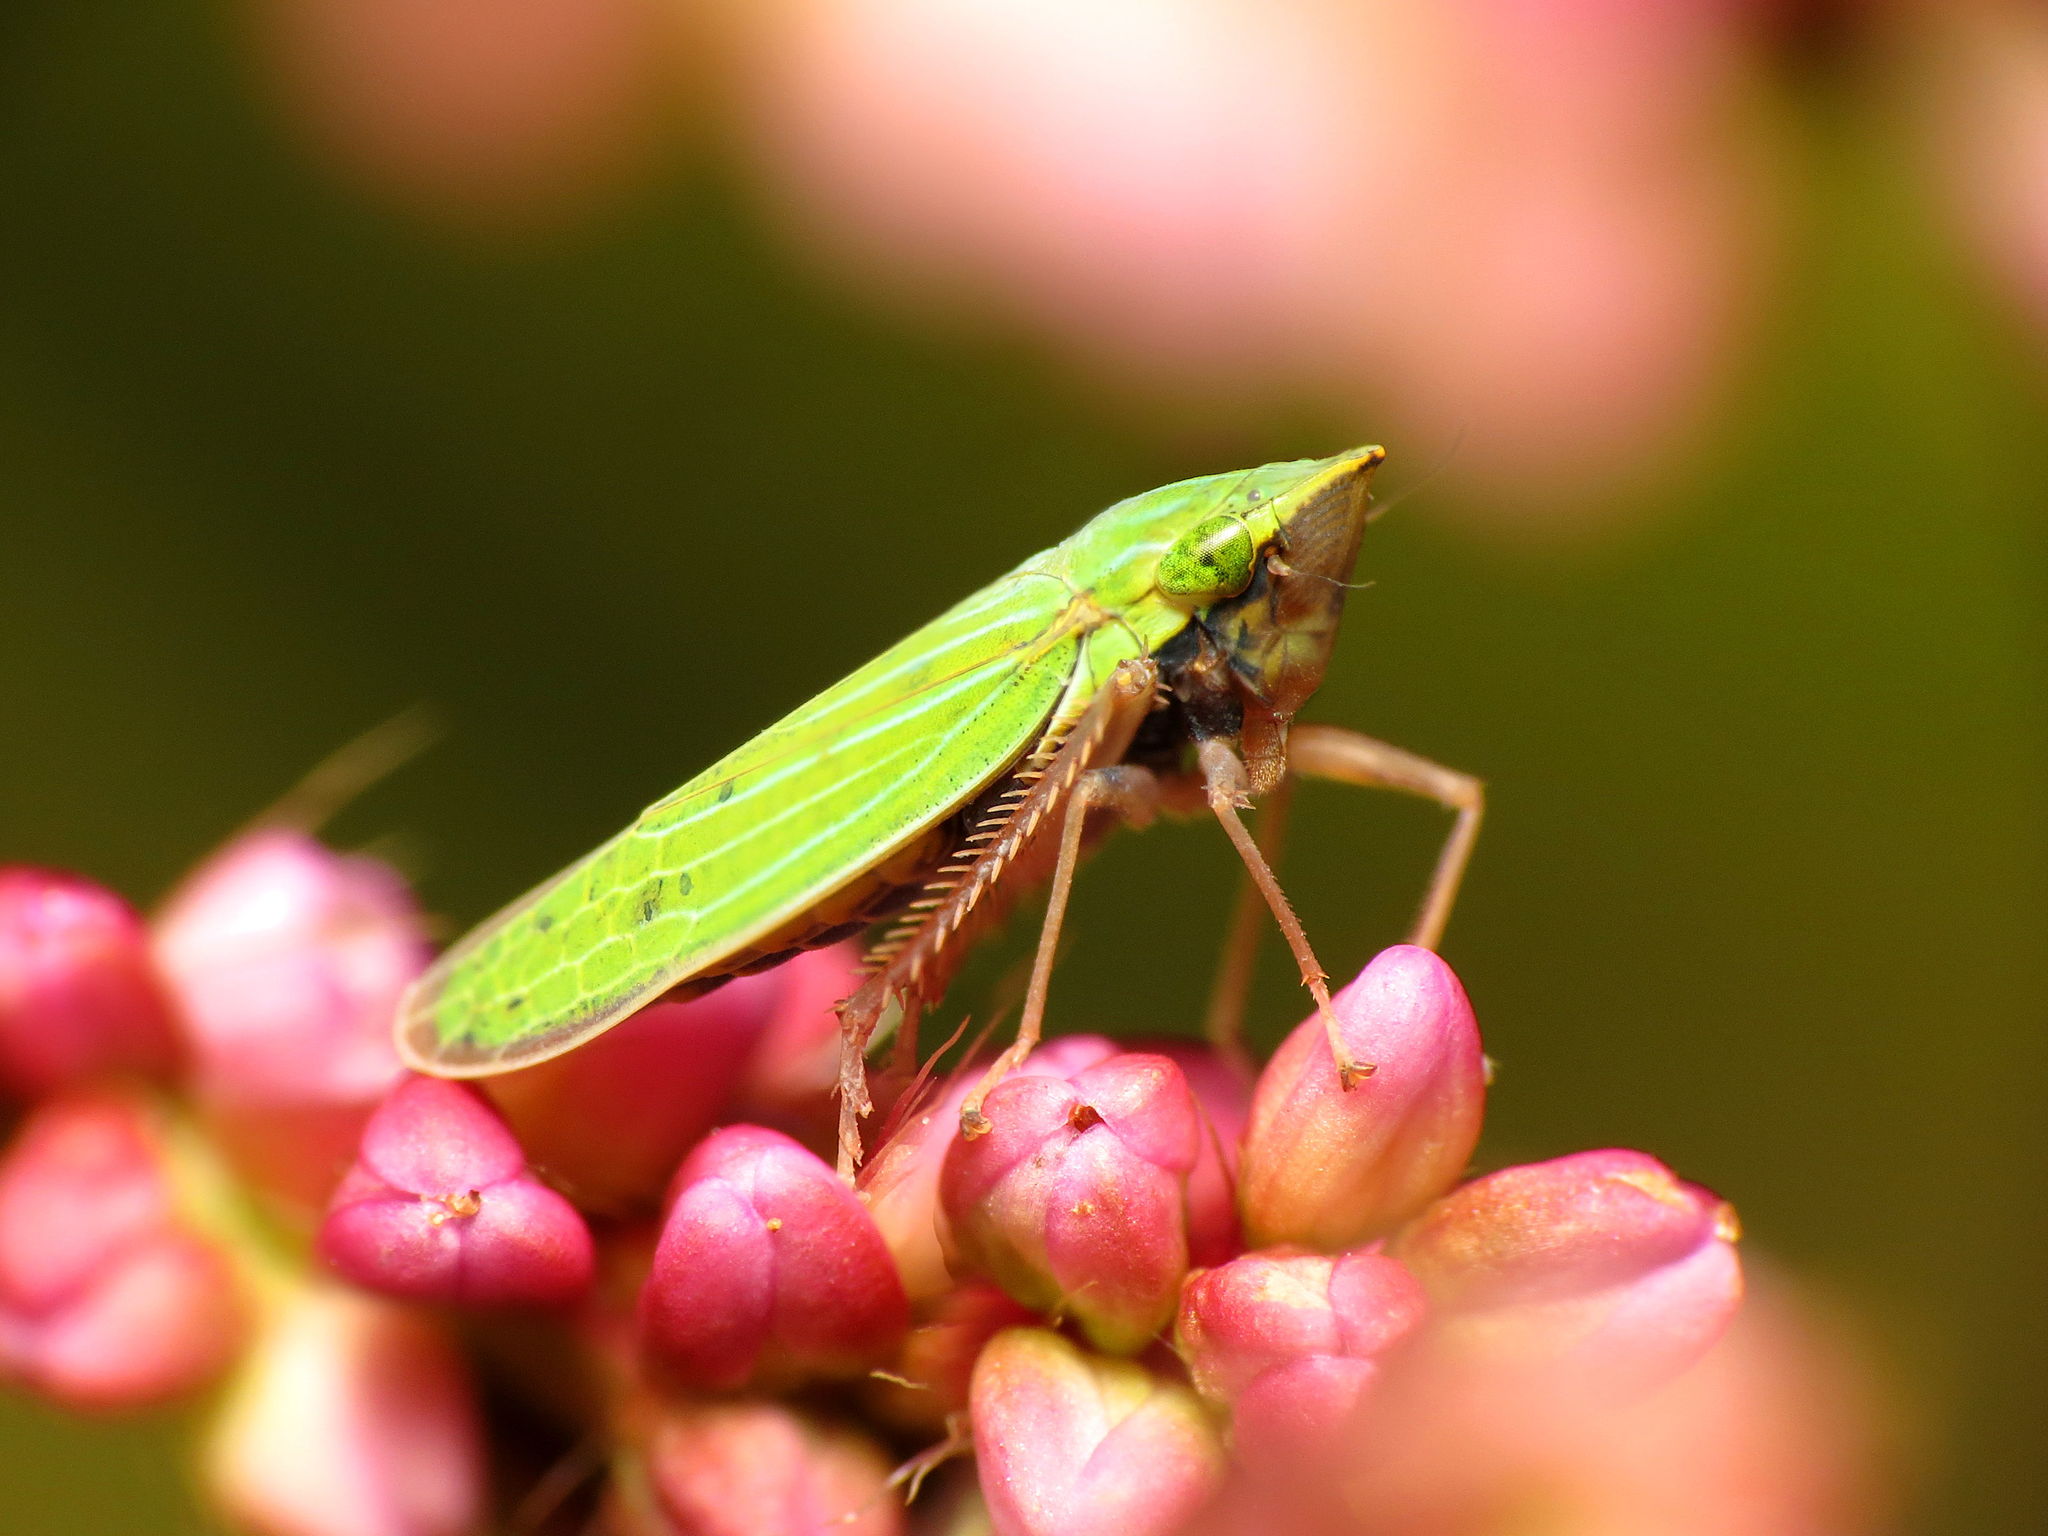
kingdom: Animalia
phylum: Arthropoda
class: Insecta
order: Hemiptera
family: Cicadellidae
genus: Draeculacephala
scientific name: Draeculacephala mollipes
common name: Watercress sharpshooter
